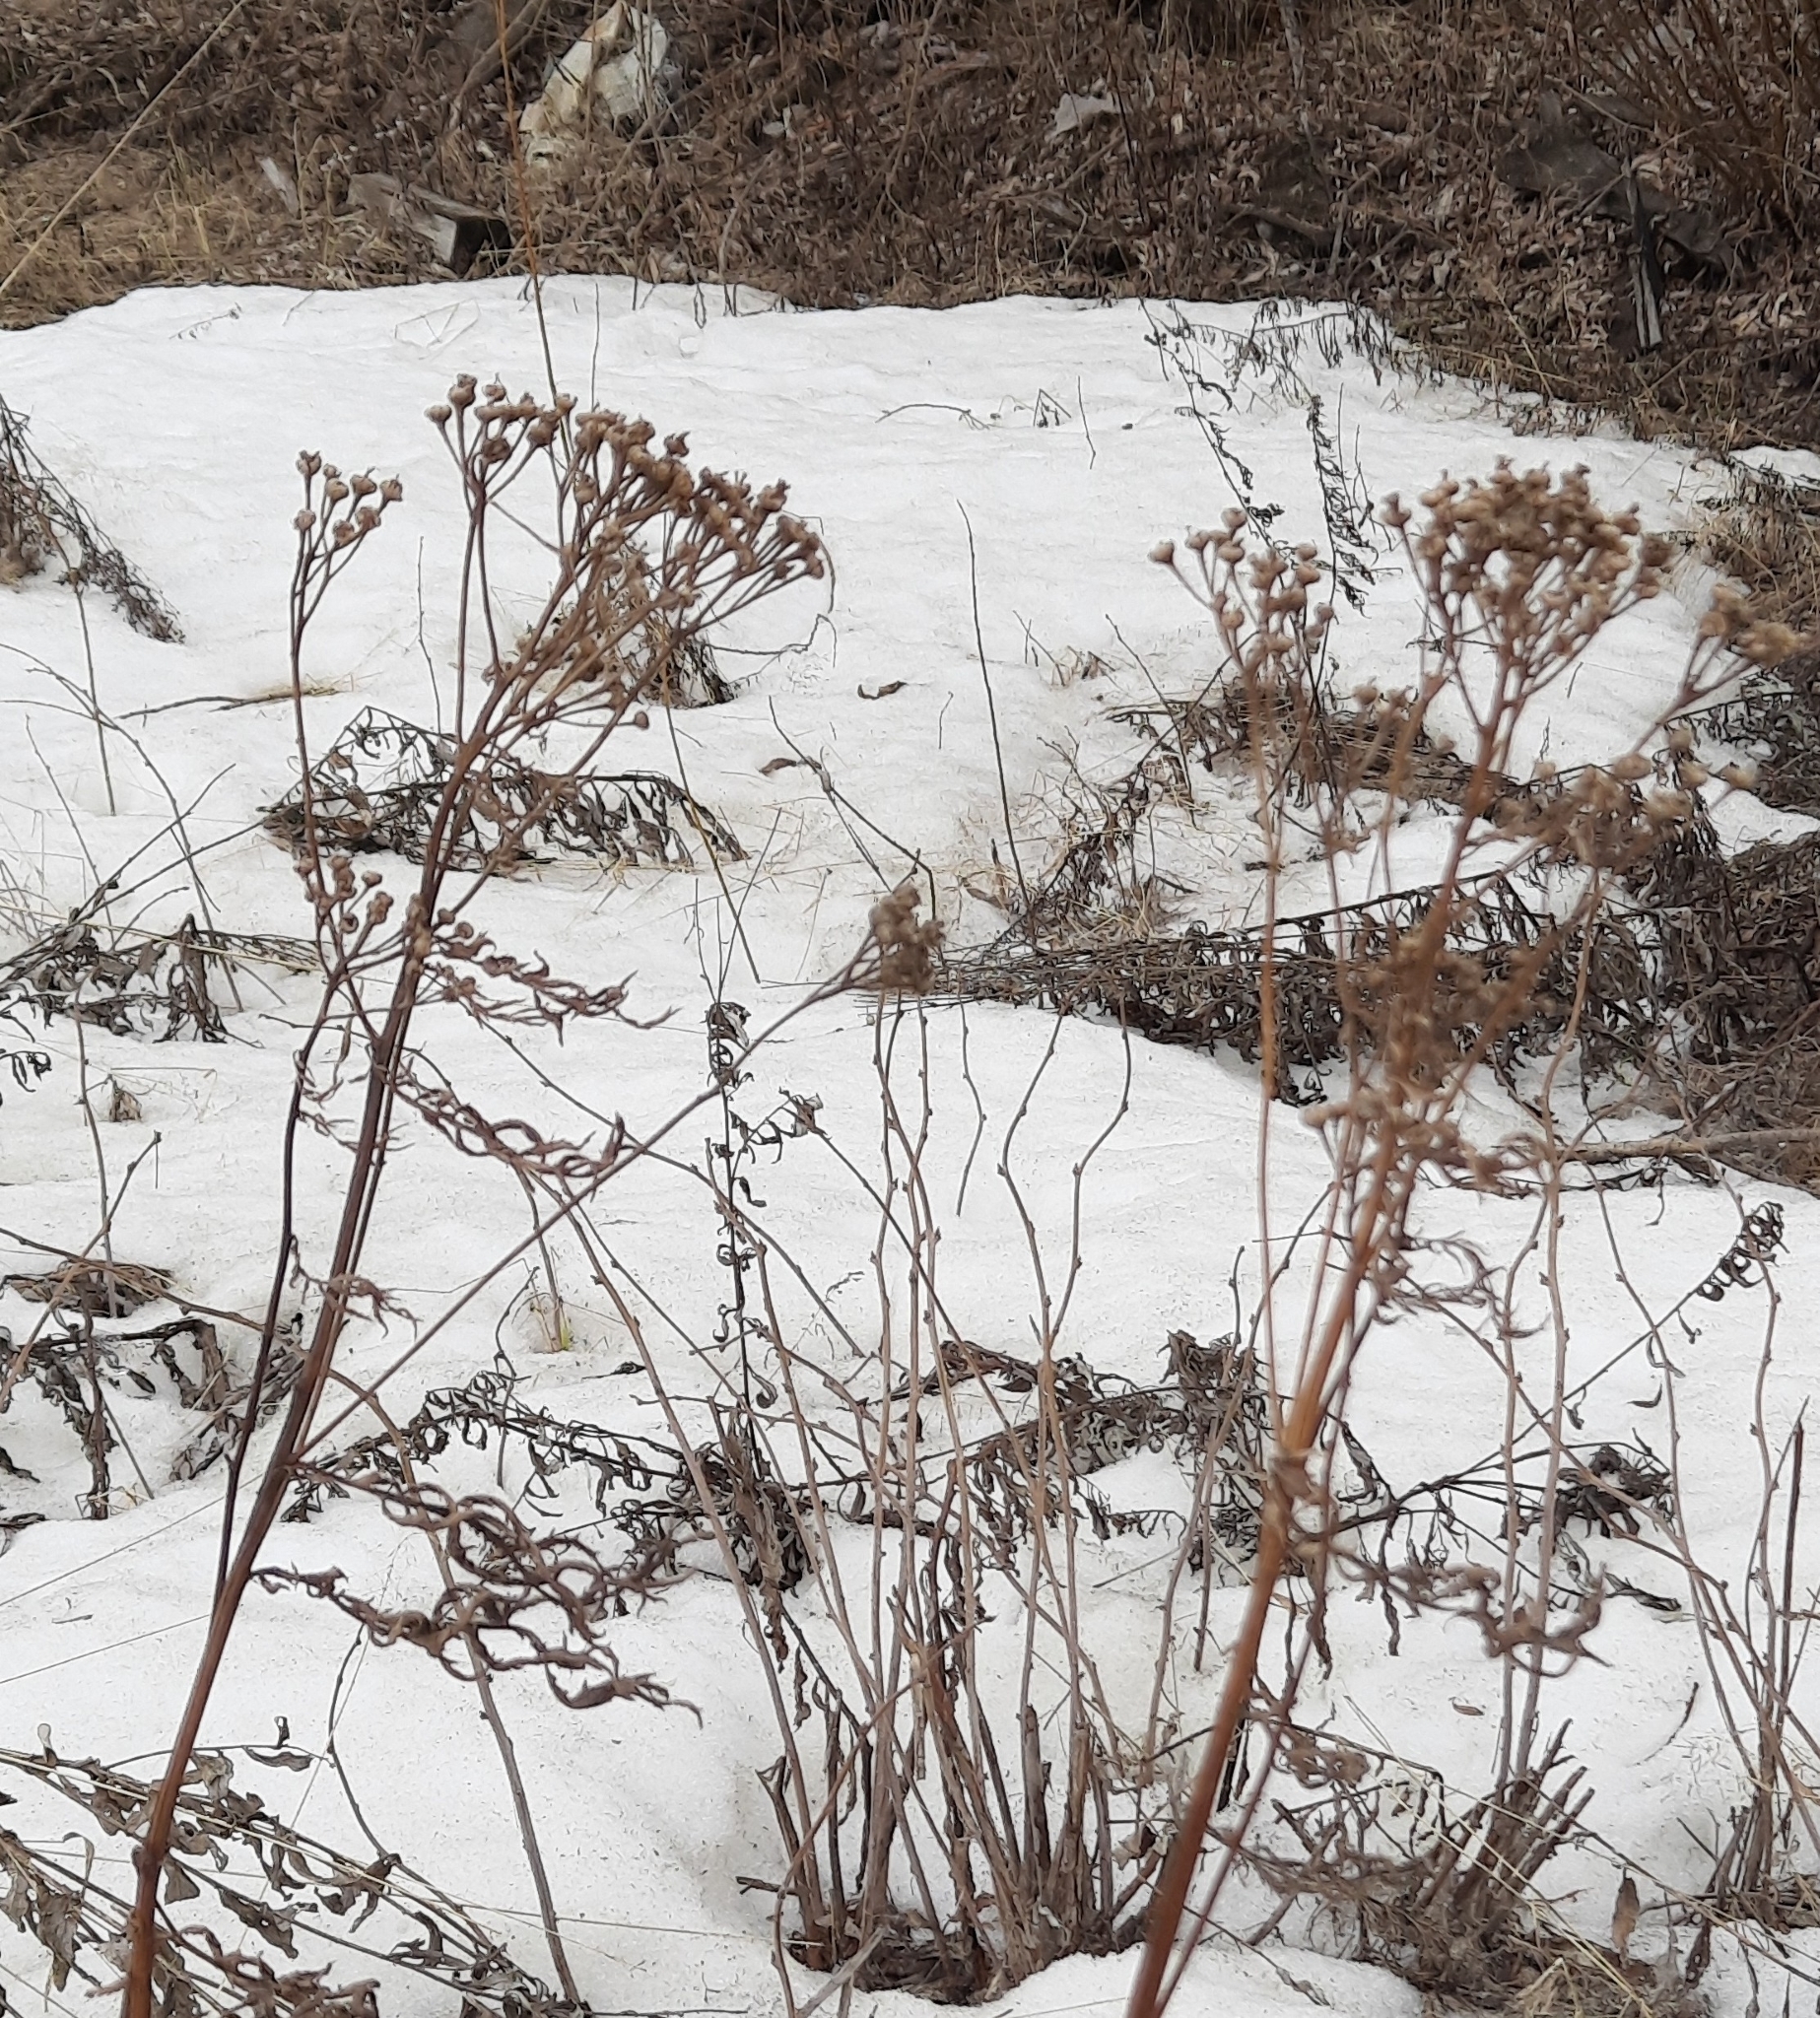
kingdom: Plantae
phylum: Tracheophyta
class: Magnoliopsida
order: Asterales
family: Asteraceae
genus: Tanacetum
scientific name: Tanacetum vulgare
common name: Common tansy
